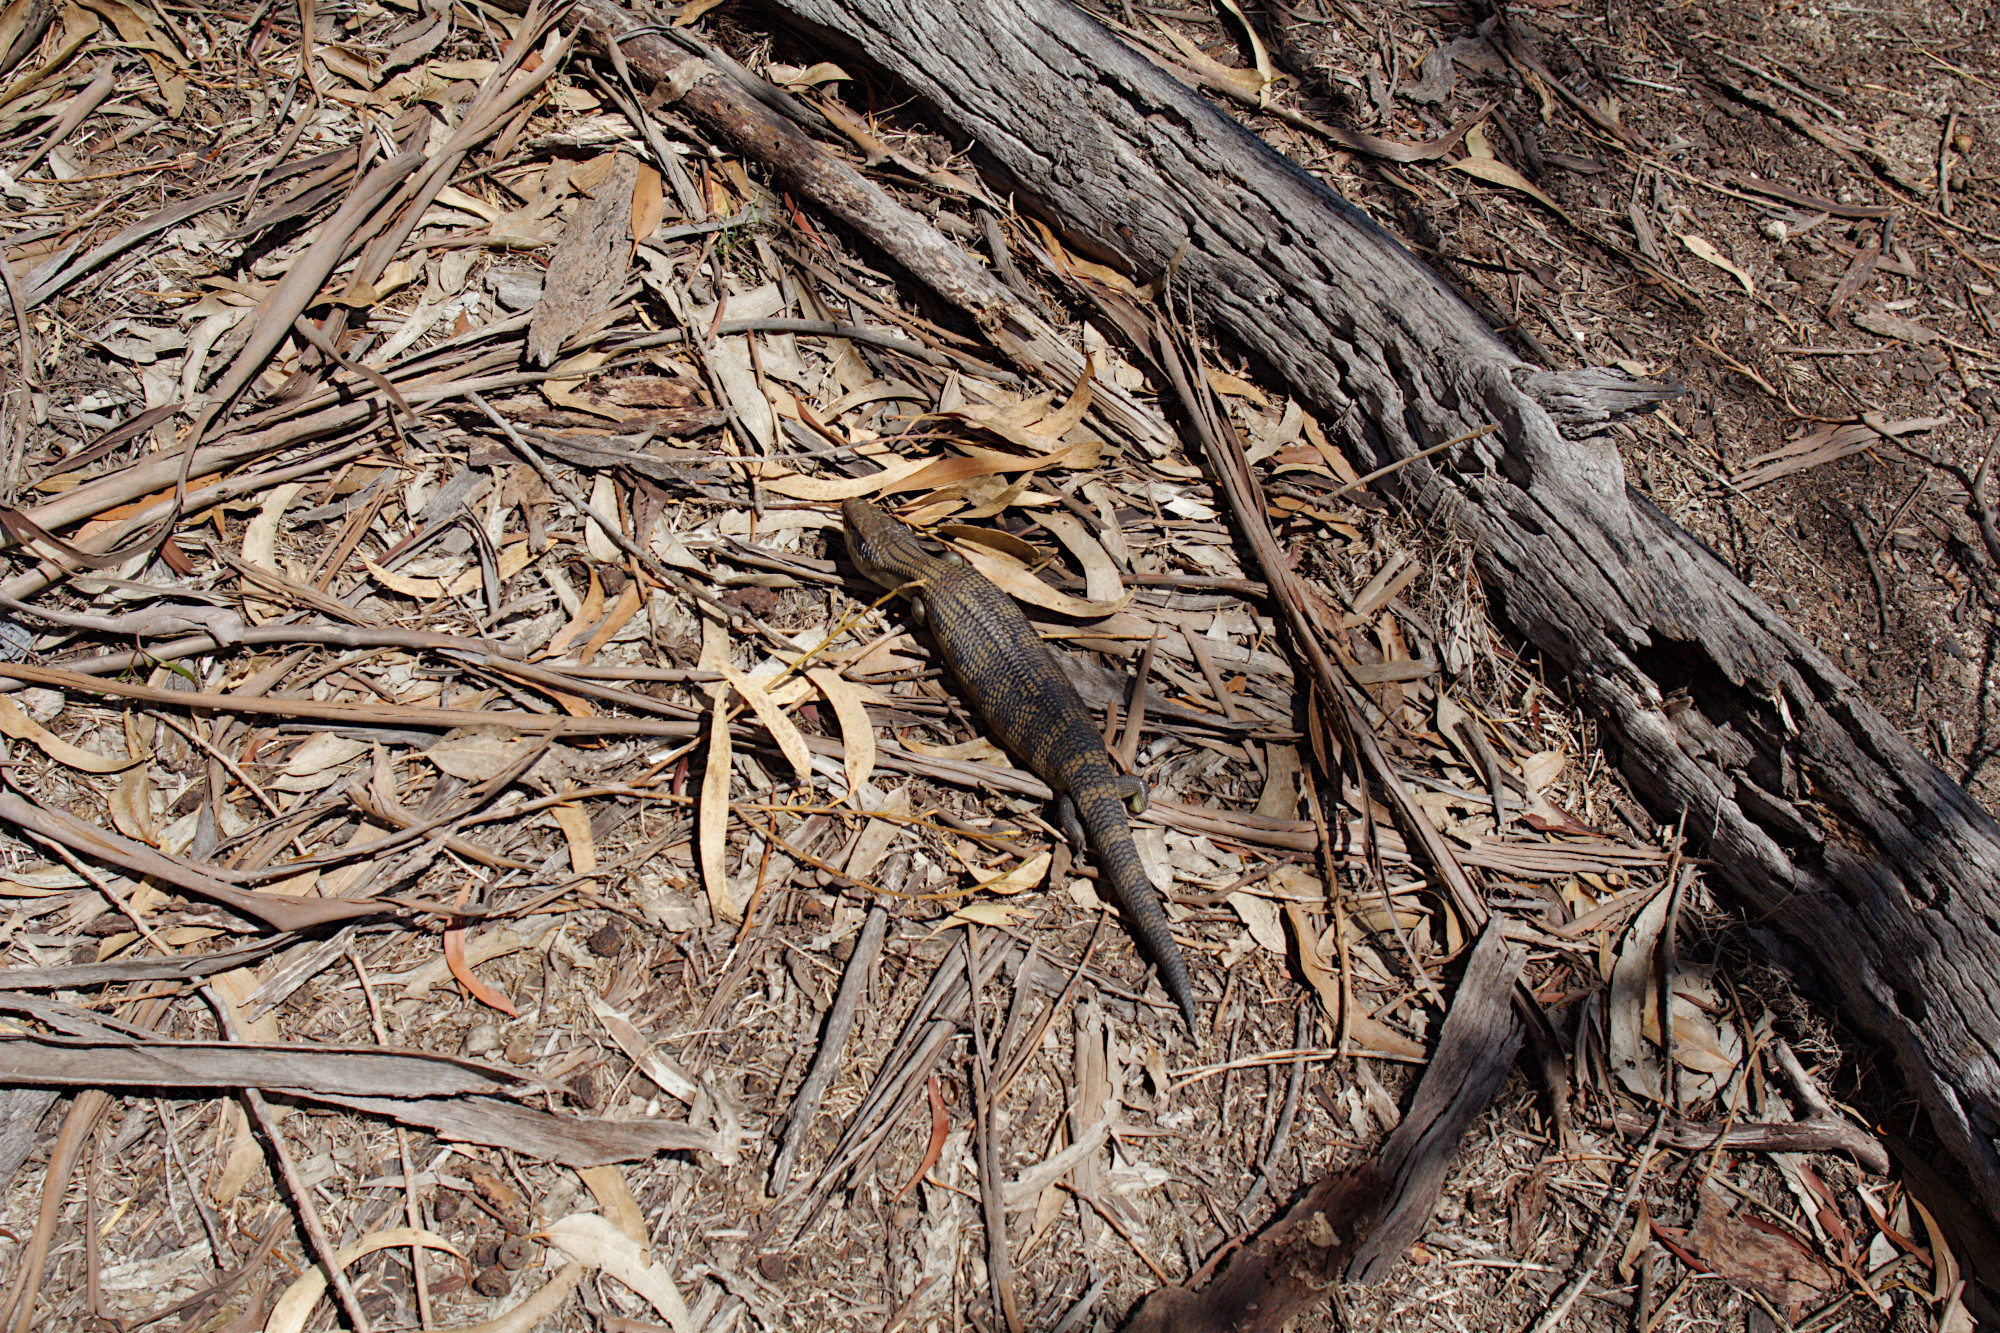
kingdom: Animalia
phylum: Chordata
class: Squamata
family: Scincidae
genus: Tiliqua
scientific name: Tiliqua scincoides
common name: Common bluetongue
